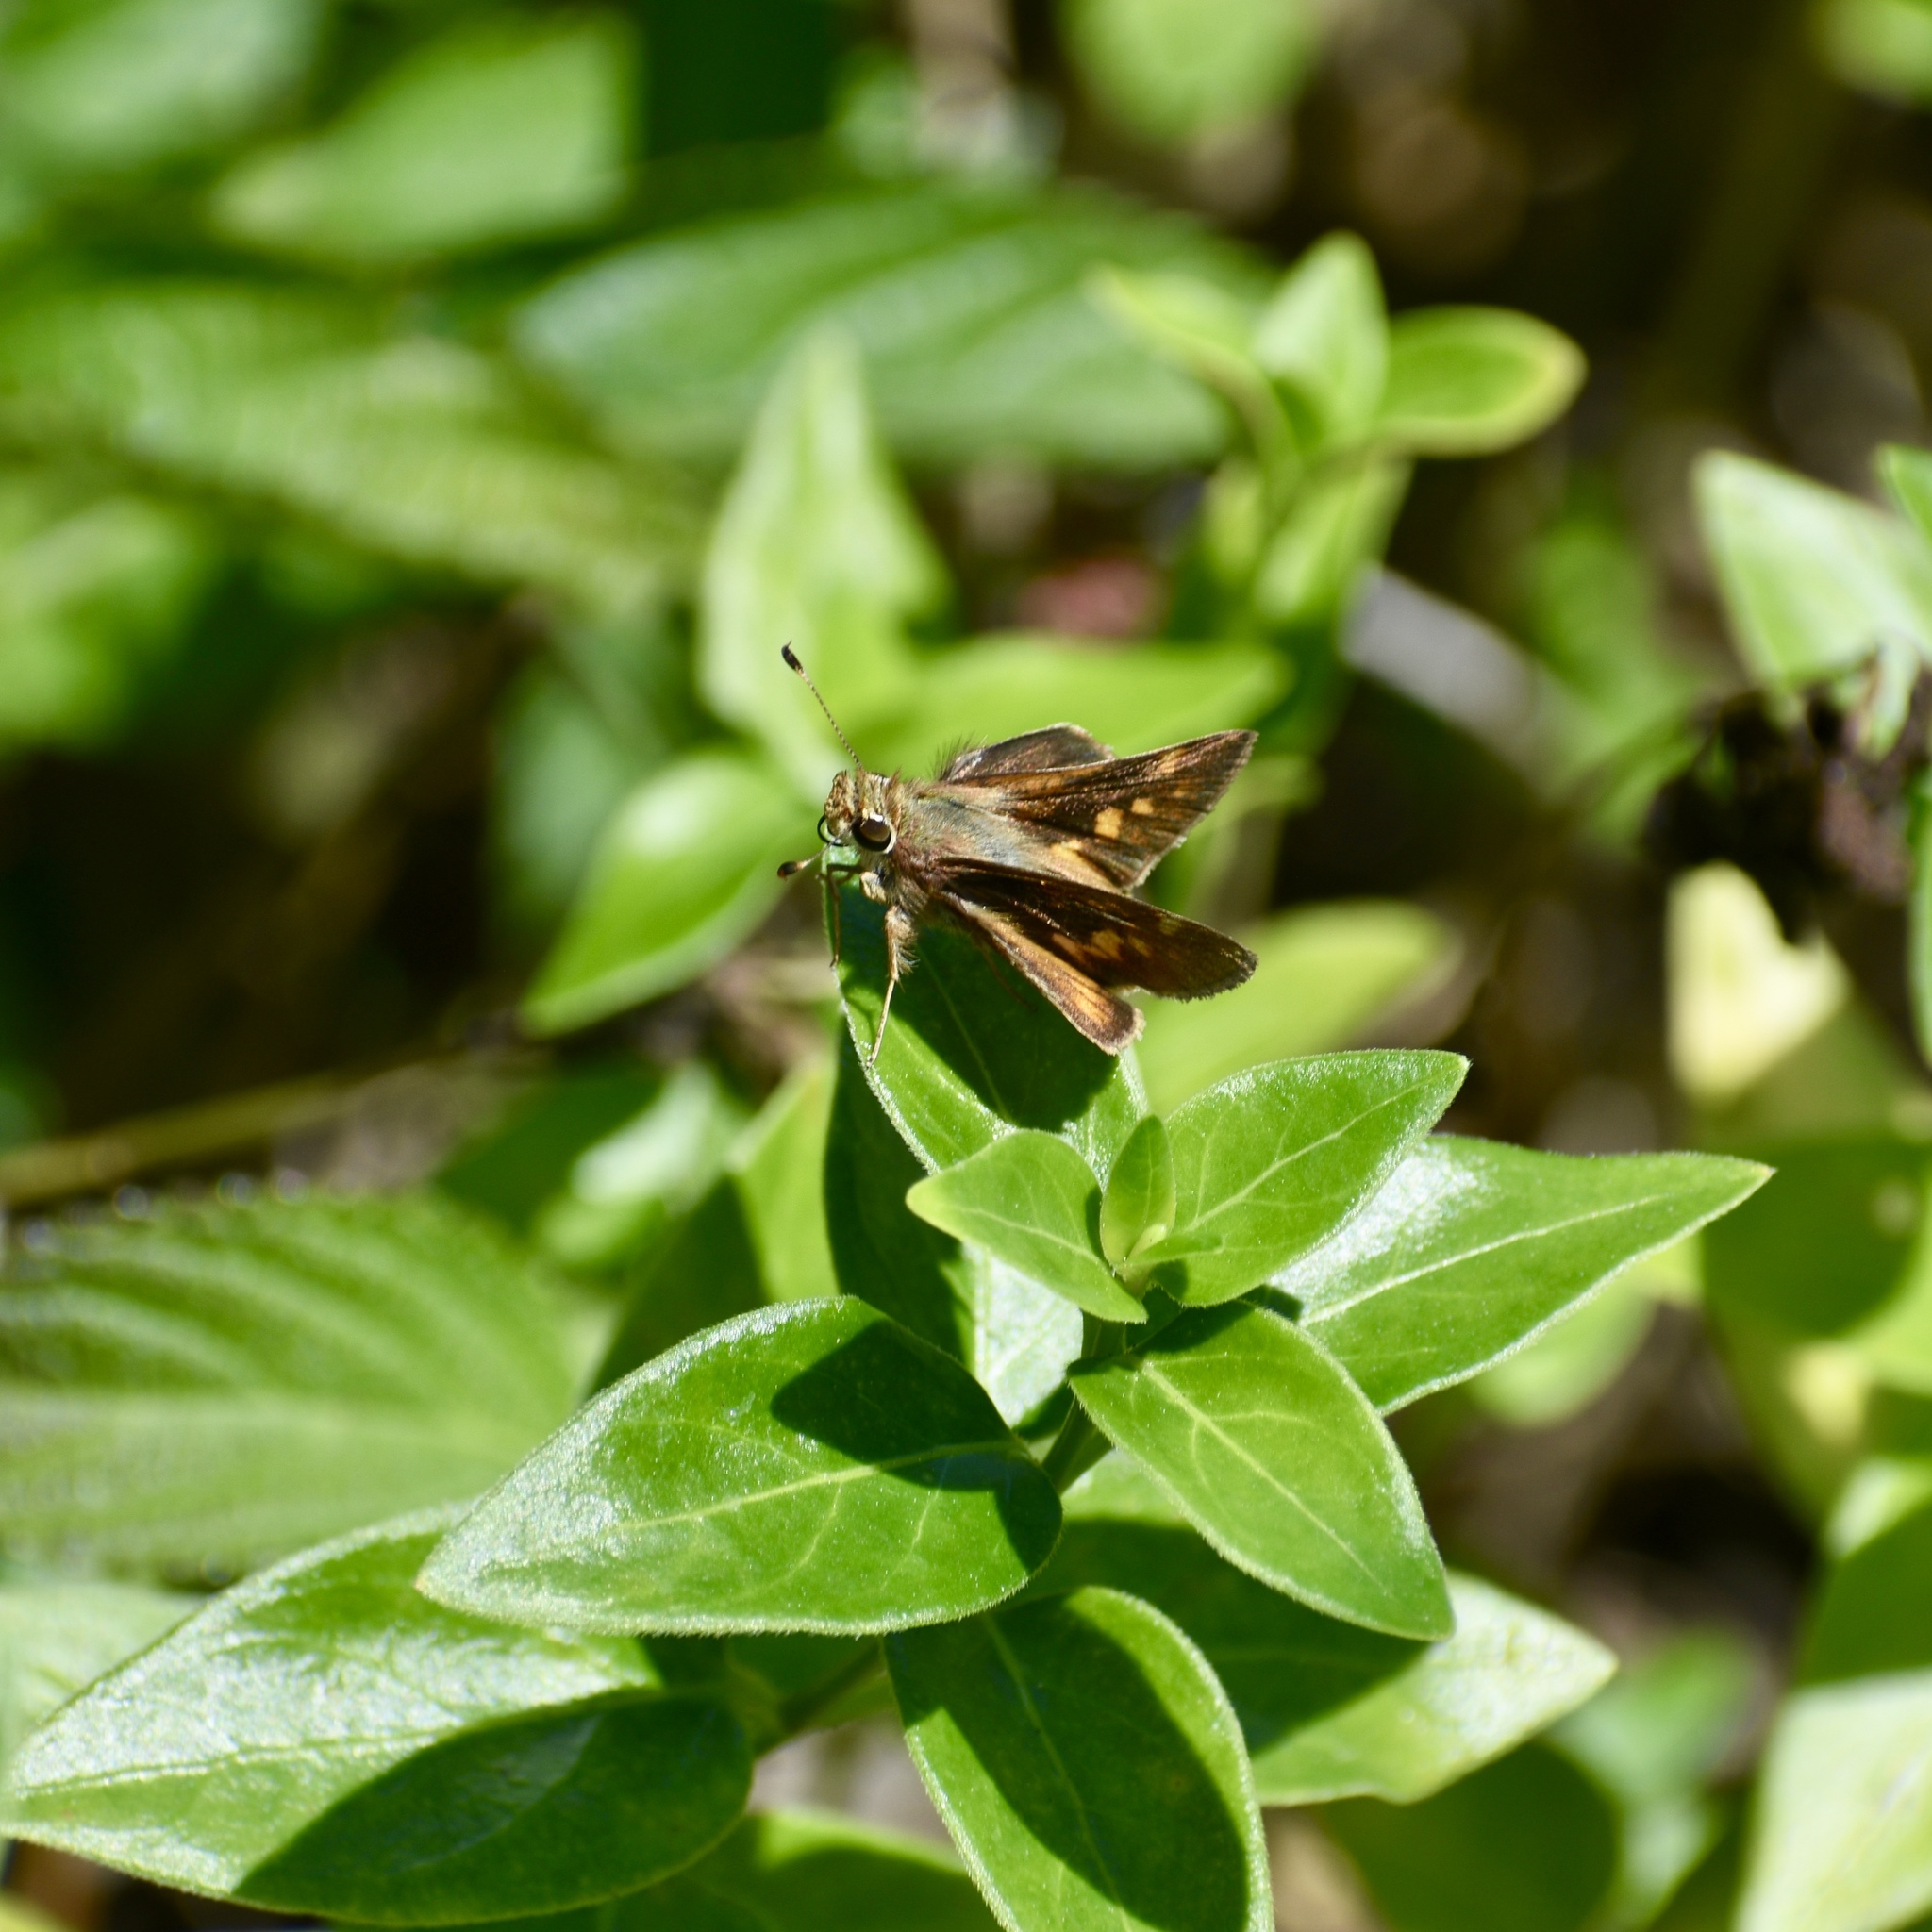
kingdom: Animalia
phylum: Arthropoda
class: Insecta
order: Lepidoptera
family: Hesperiidae
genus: Lon
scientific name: Lon melane
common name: Umber skipper
